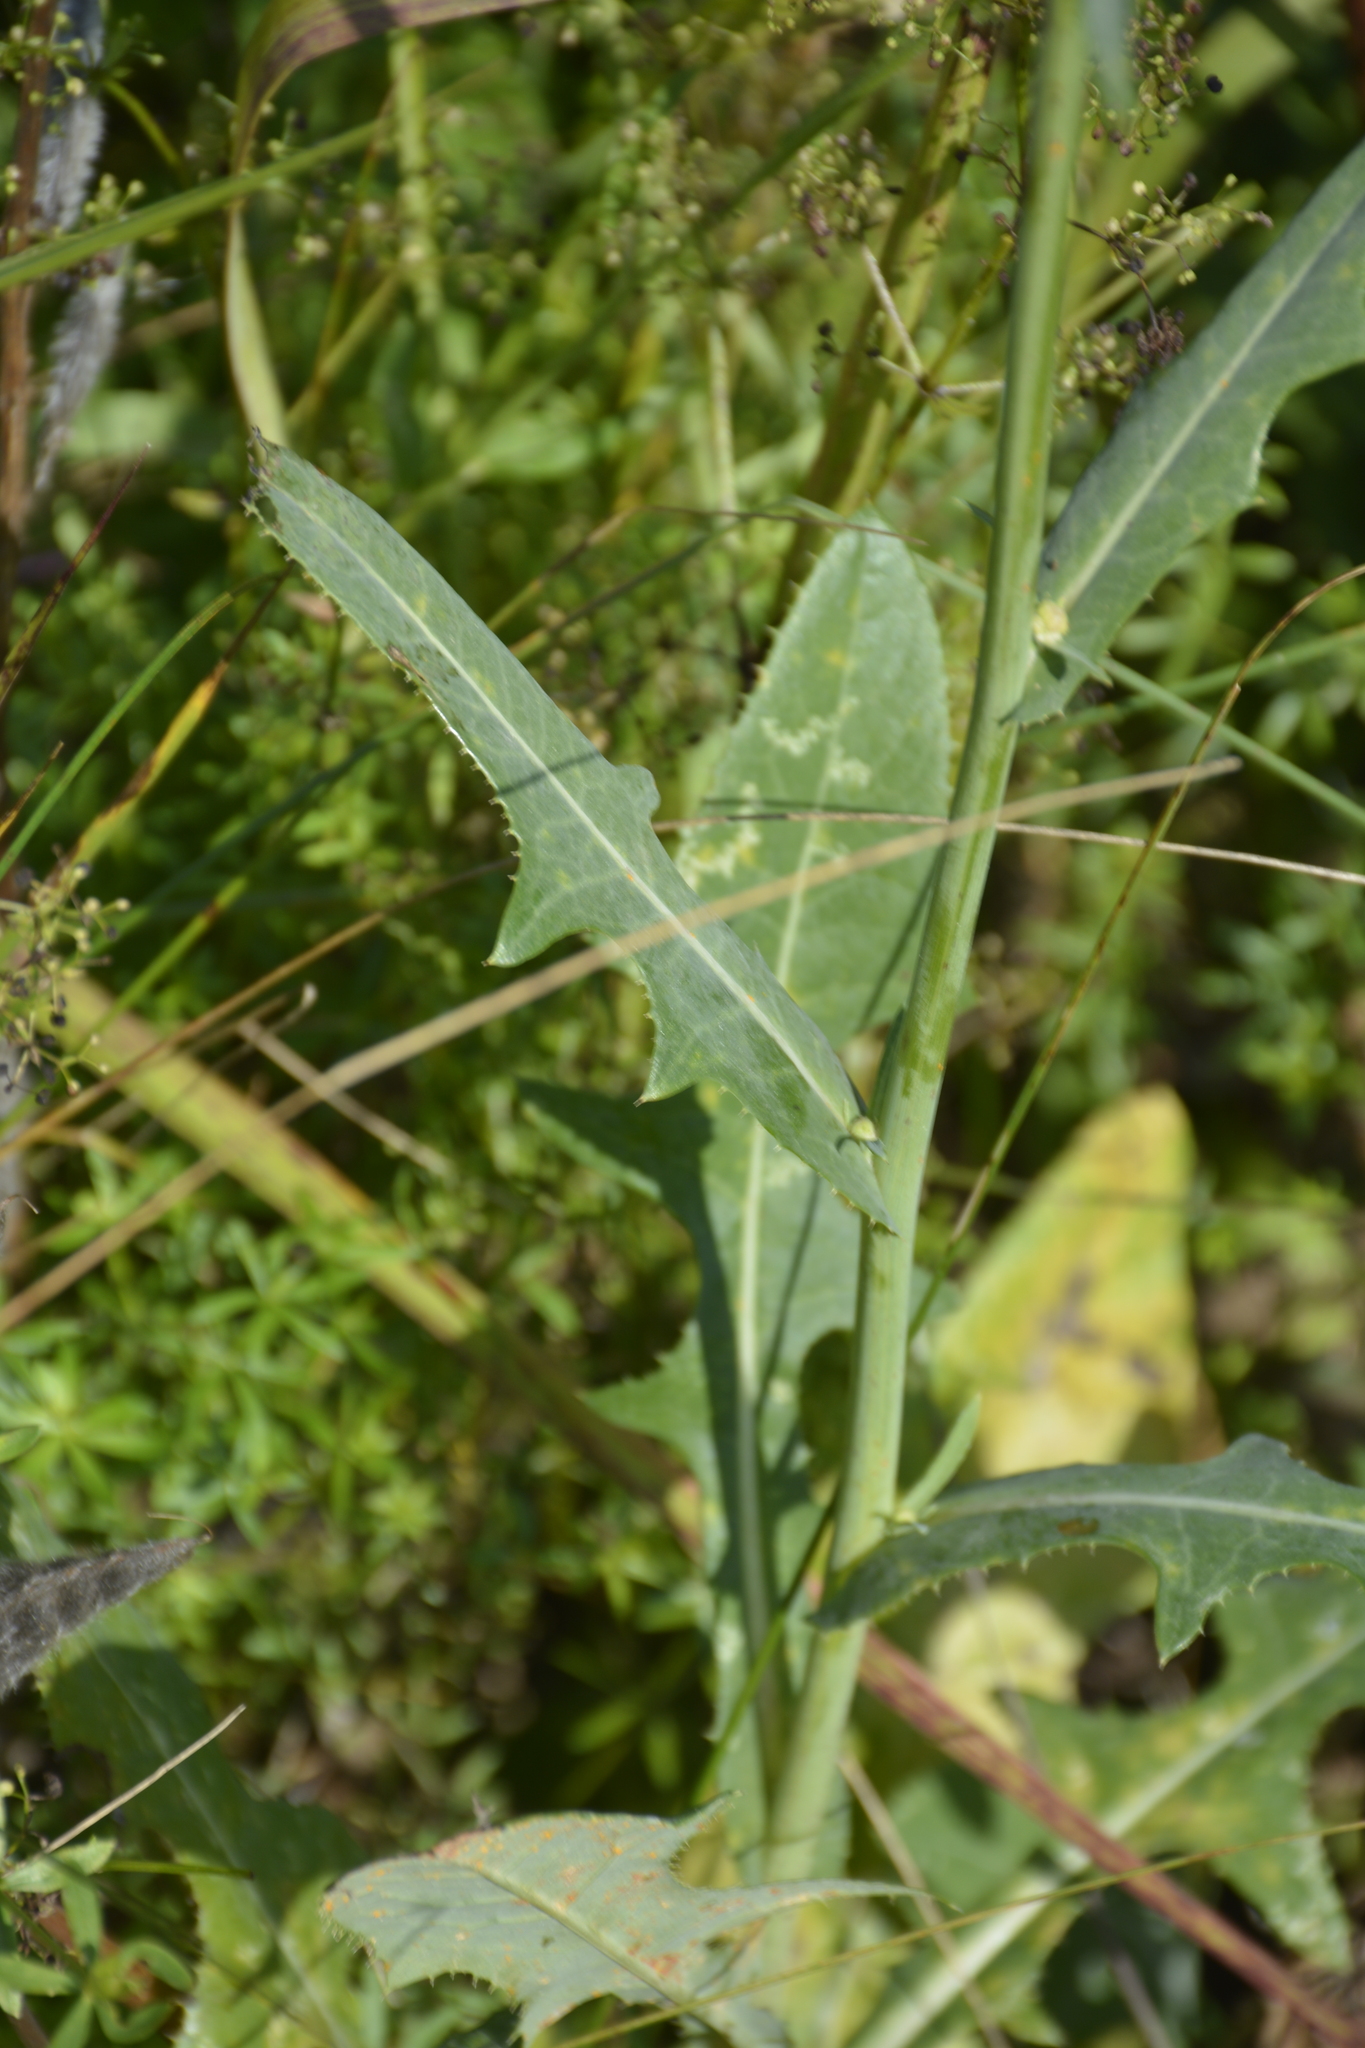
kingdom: Plantae
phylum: Tracheophyta
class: Magnoliopsida
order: Asterales
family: Asteraceae
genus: Sonchus
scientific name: Sonchus arvensis
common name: Perennial sow-thistle
